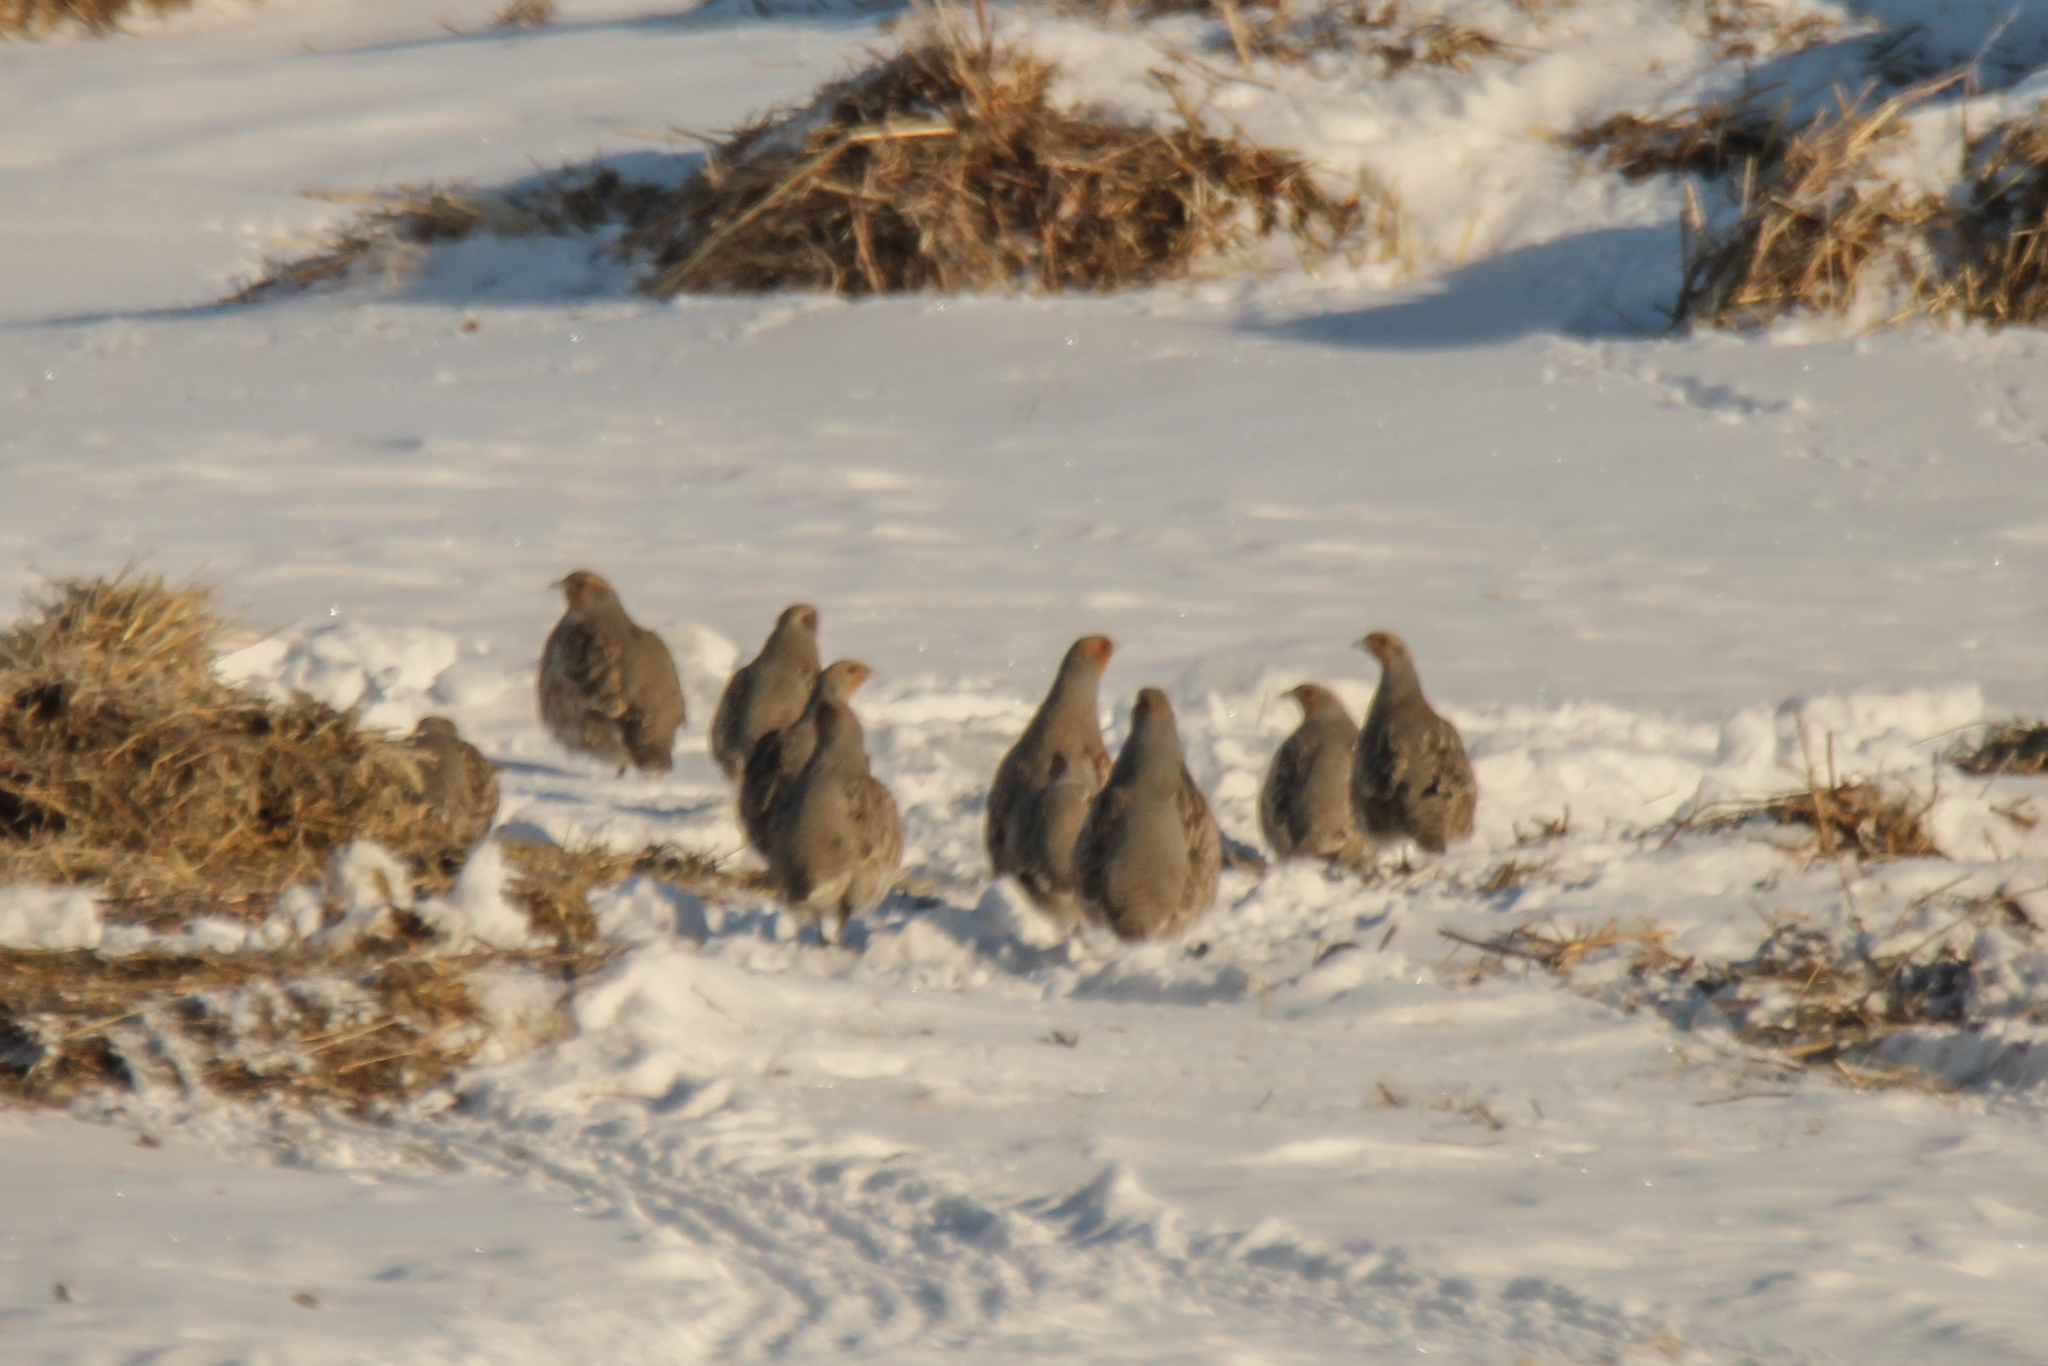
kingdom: Animalia
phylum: Chordata
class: Aves
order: Galliformes
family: Phasianidae
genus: Perdix
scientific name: Perdix perdix
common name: Grey partridge
